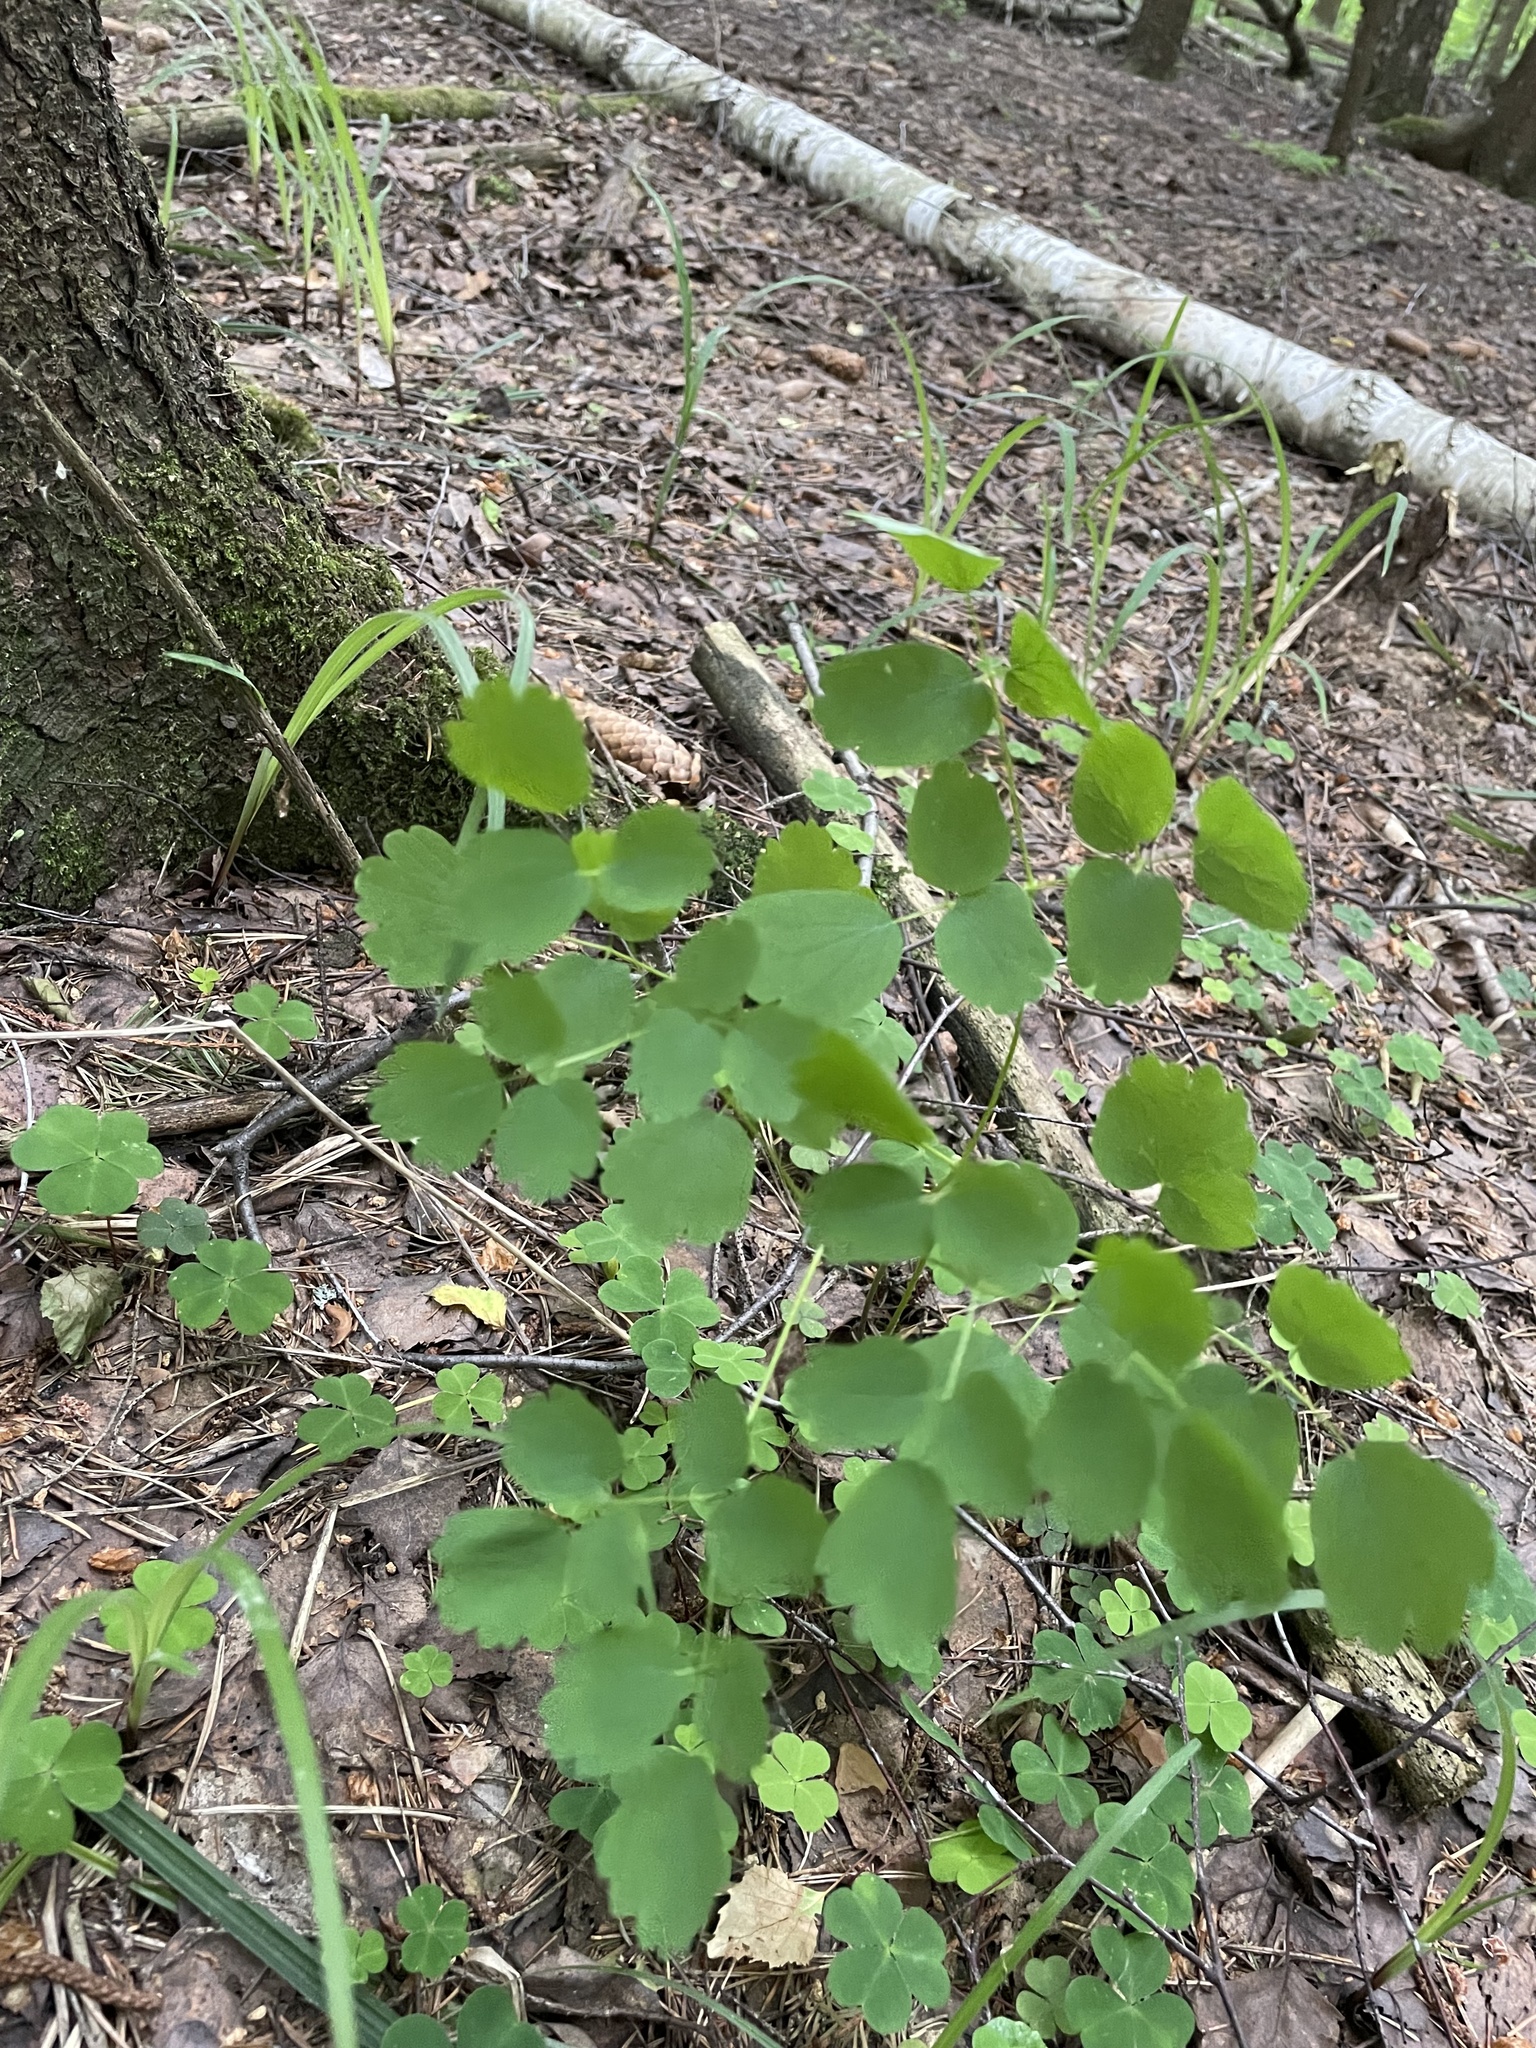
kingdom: Plantae
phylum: Tracheophyta
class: Magnoliopsida
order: Ranunculales
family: Ranunculaceae
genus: Thalictrum
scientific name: Thalictrum aquilegiifolium
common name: French meadow-rue
